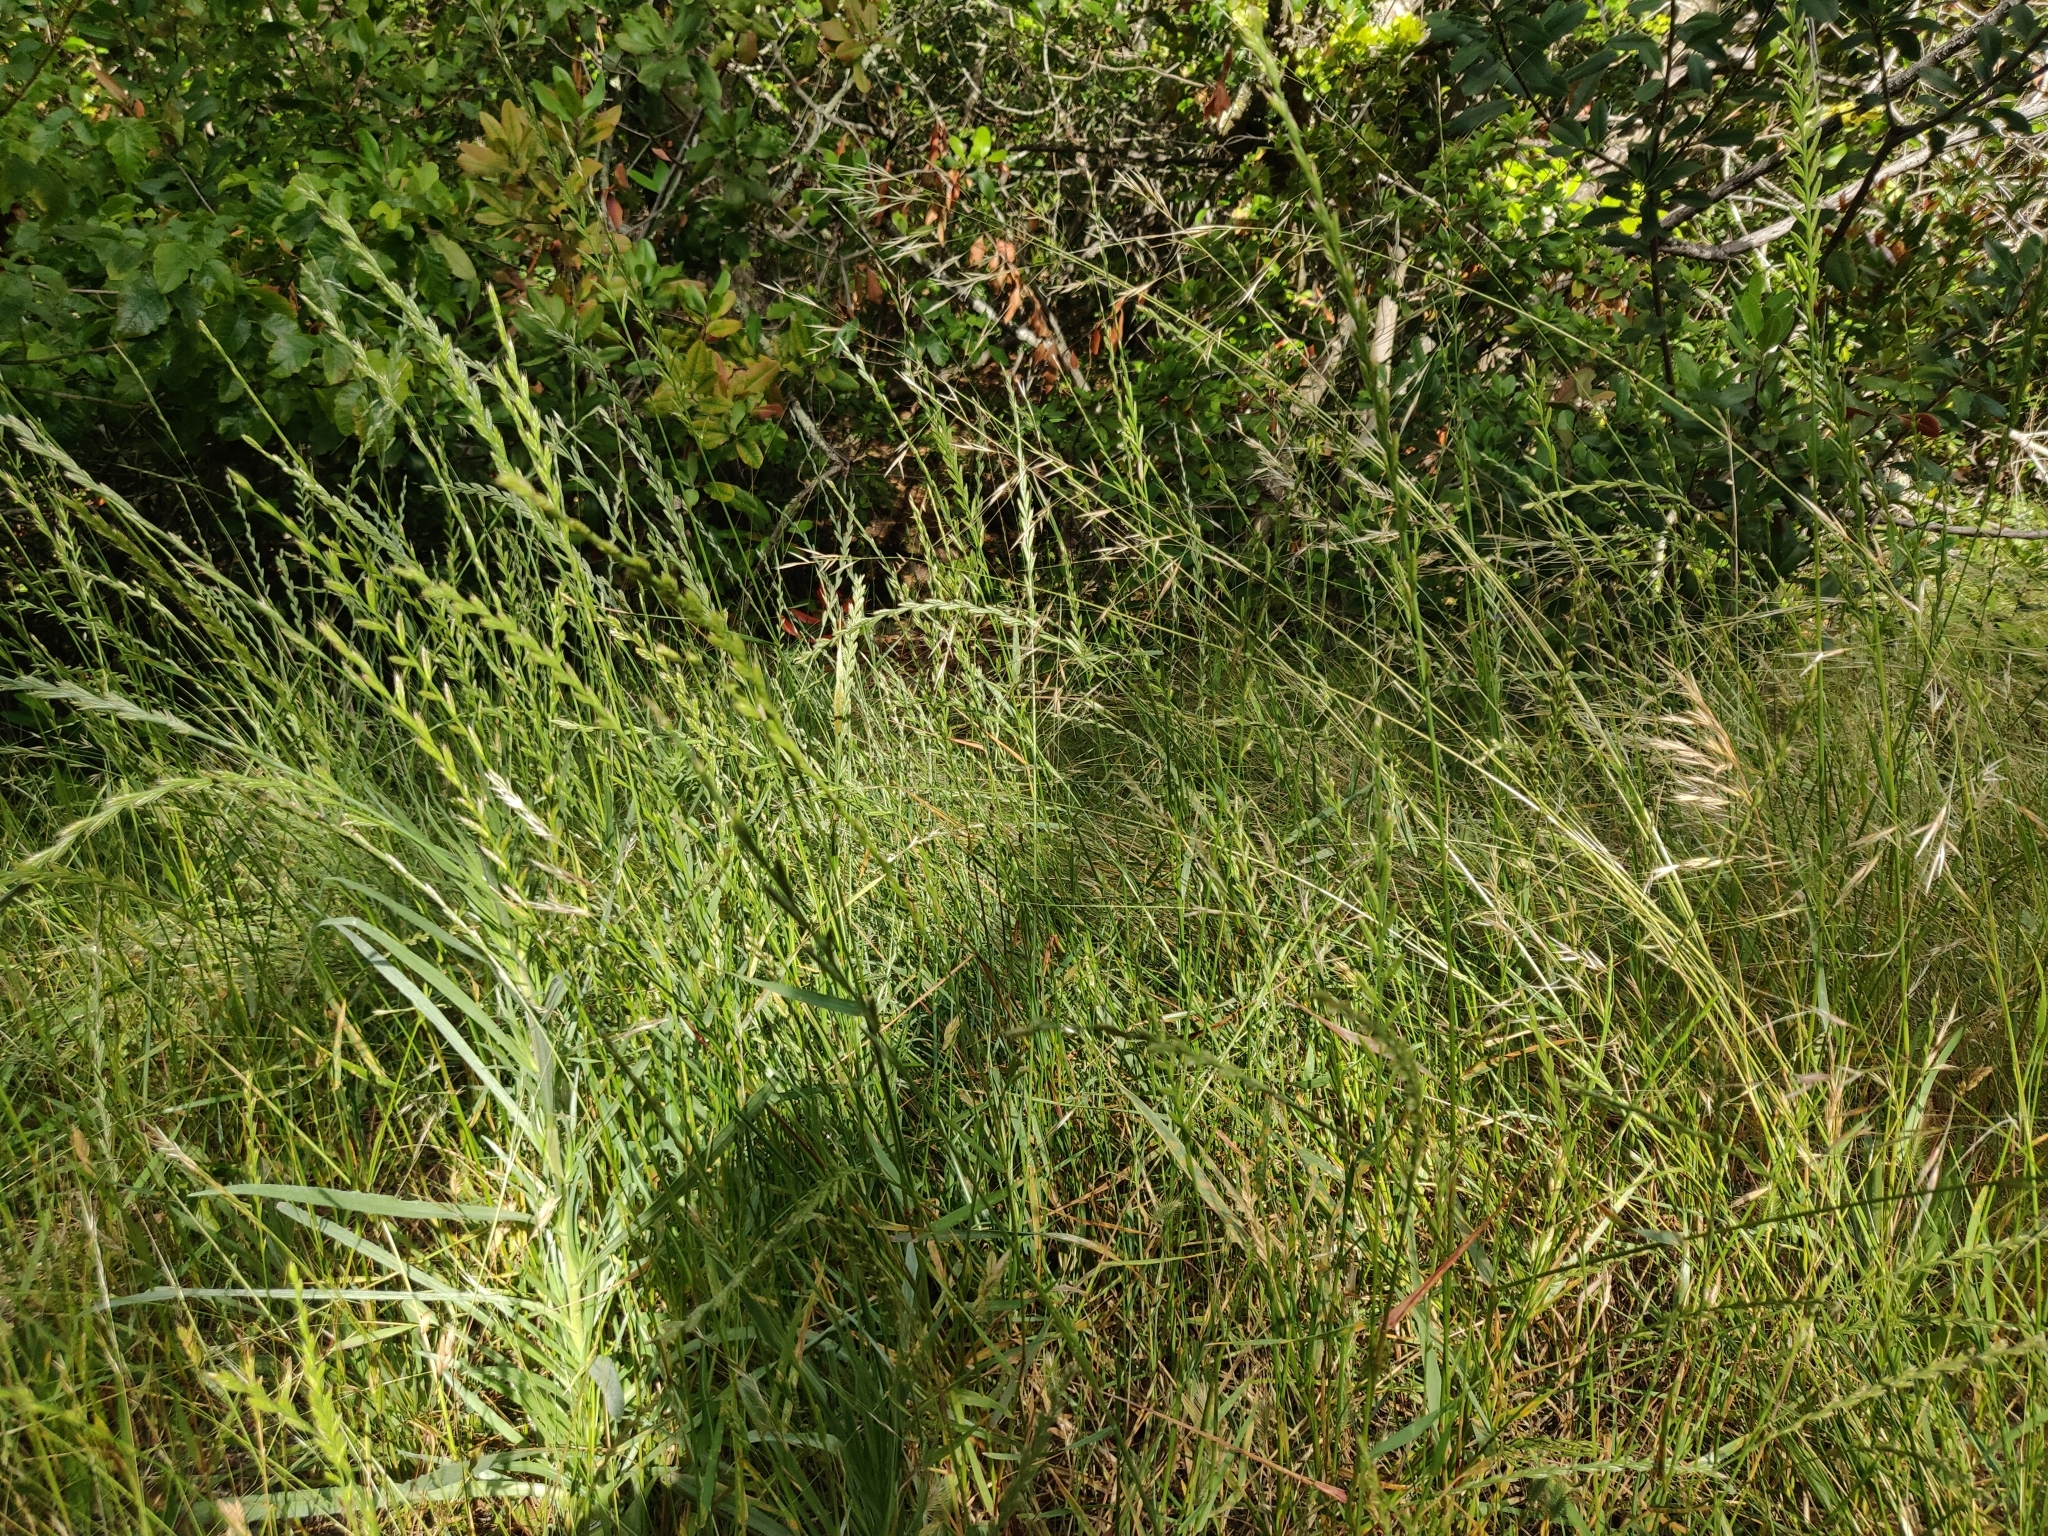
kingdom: Plantae
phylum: Tracheophyta
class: Liliopsida
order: Poales
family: Poaceae
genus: Bromus
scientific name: Bromus hordeaceus
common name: Soft brome
